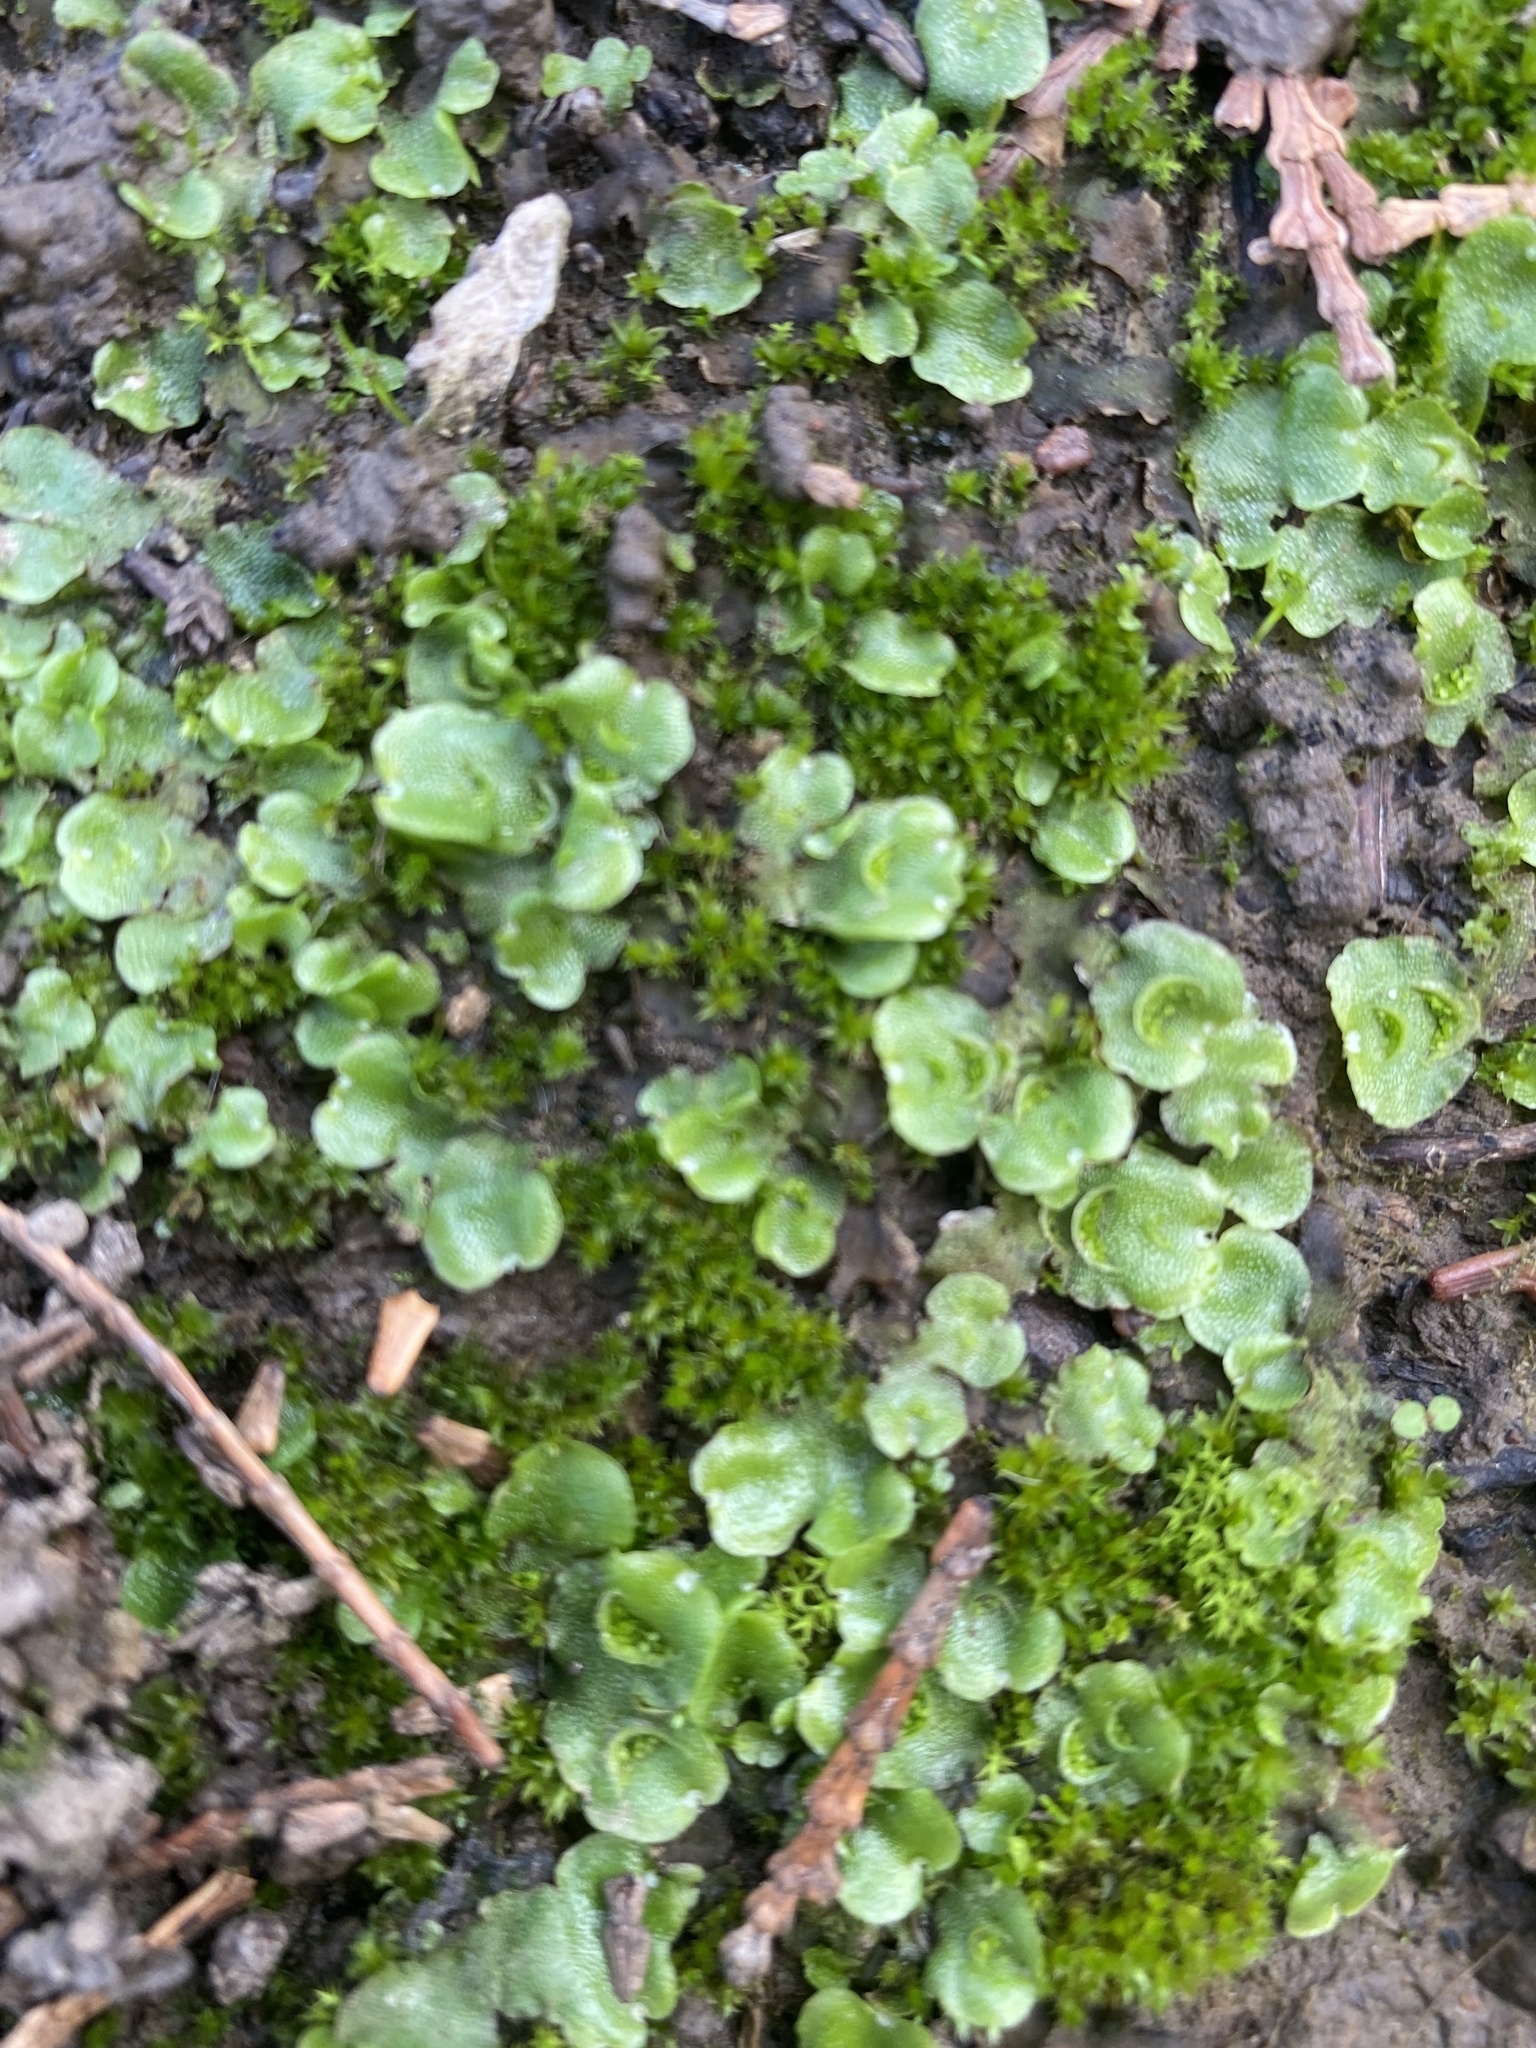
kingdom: Plantae
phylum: Marchantiophyta
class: Marchantiopsida
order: Lunulariales
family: Lunulariaceae
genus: Lunularia
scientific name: Lunularia cruciata
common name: Crescent-cup liverwort
